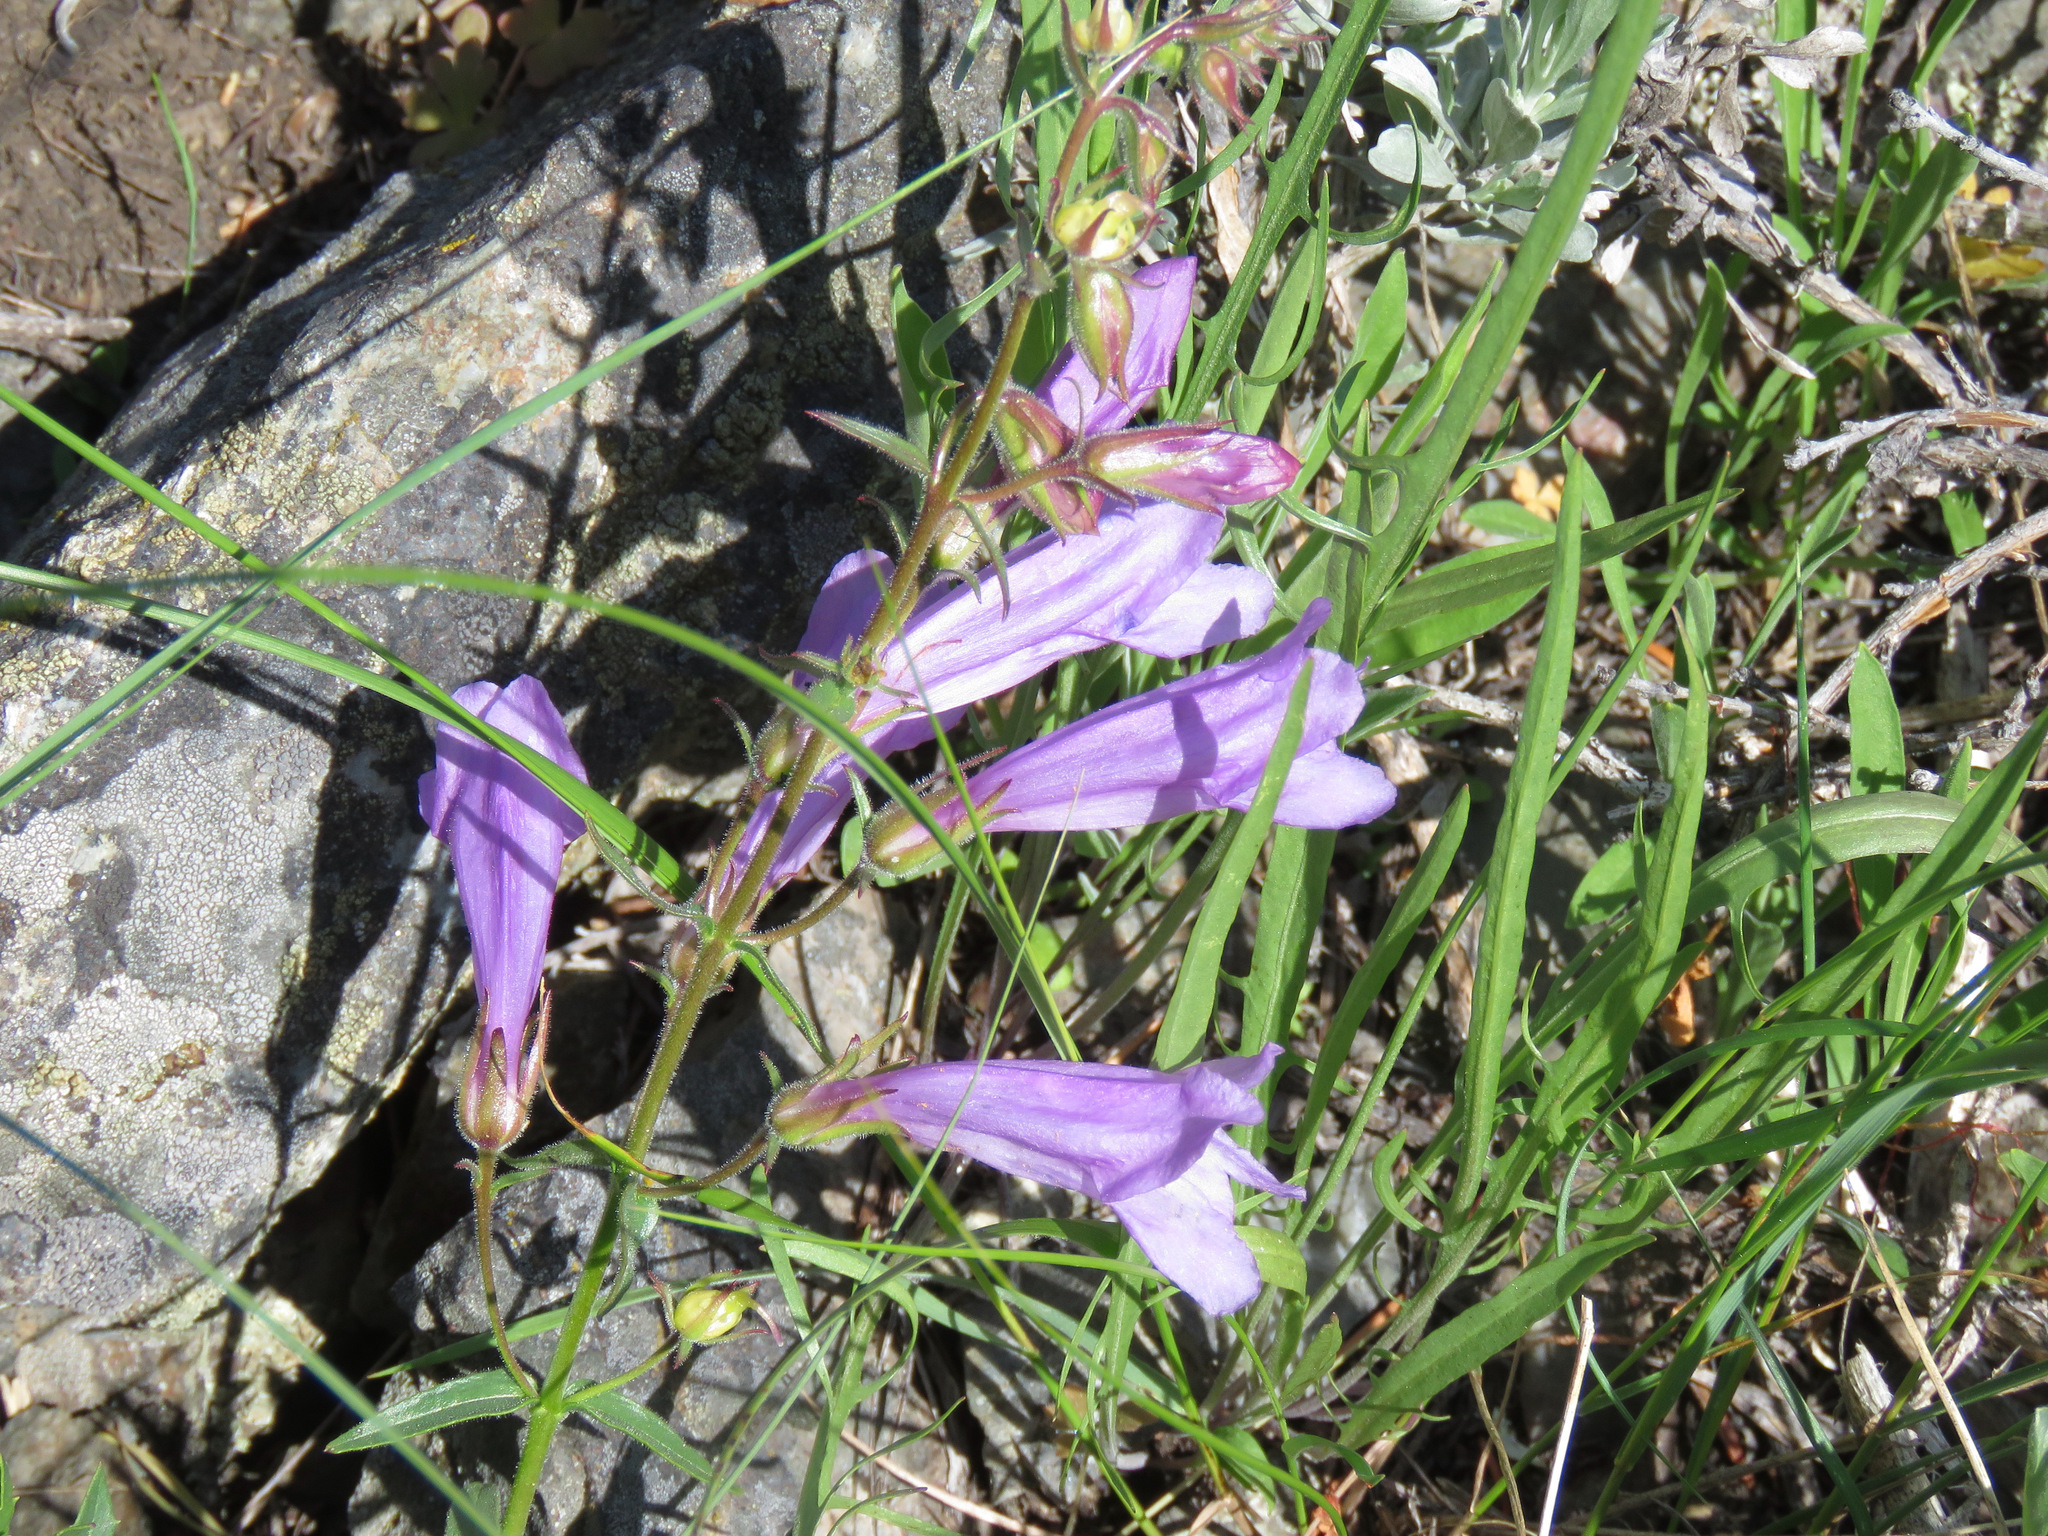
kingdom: Plantae
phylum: Tracheophyta
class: Magnoliopsida
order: Lamiales
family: Plantaginaceae
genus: Penstemon
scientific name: Penstemon fruticosus
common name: Bush penstemon
